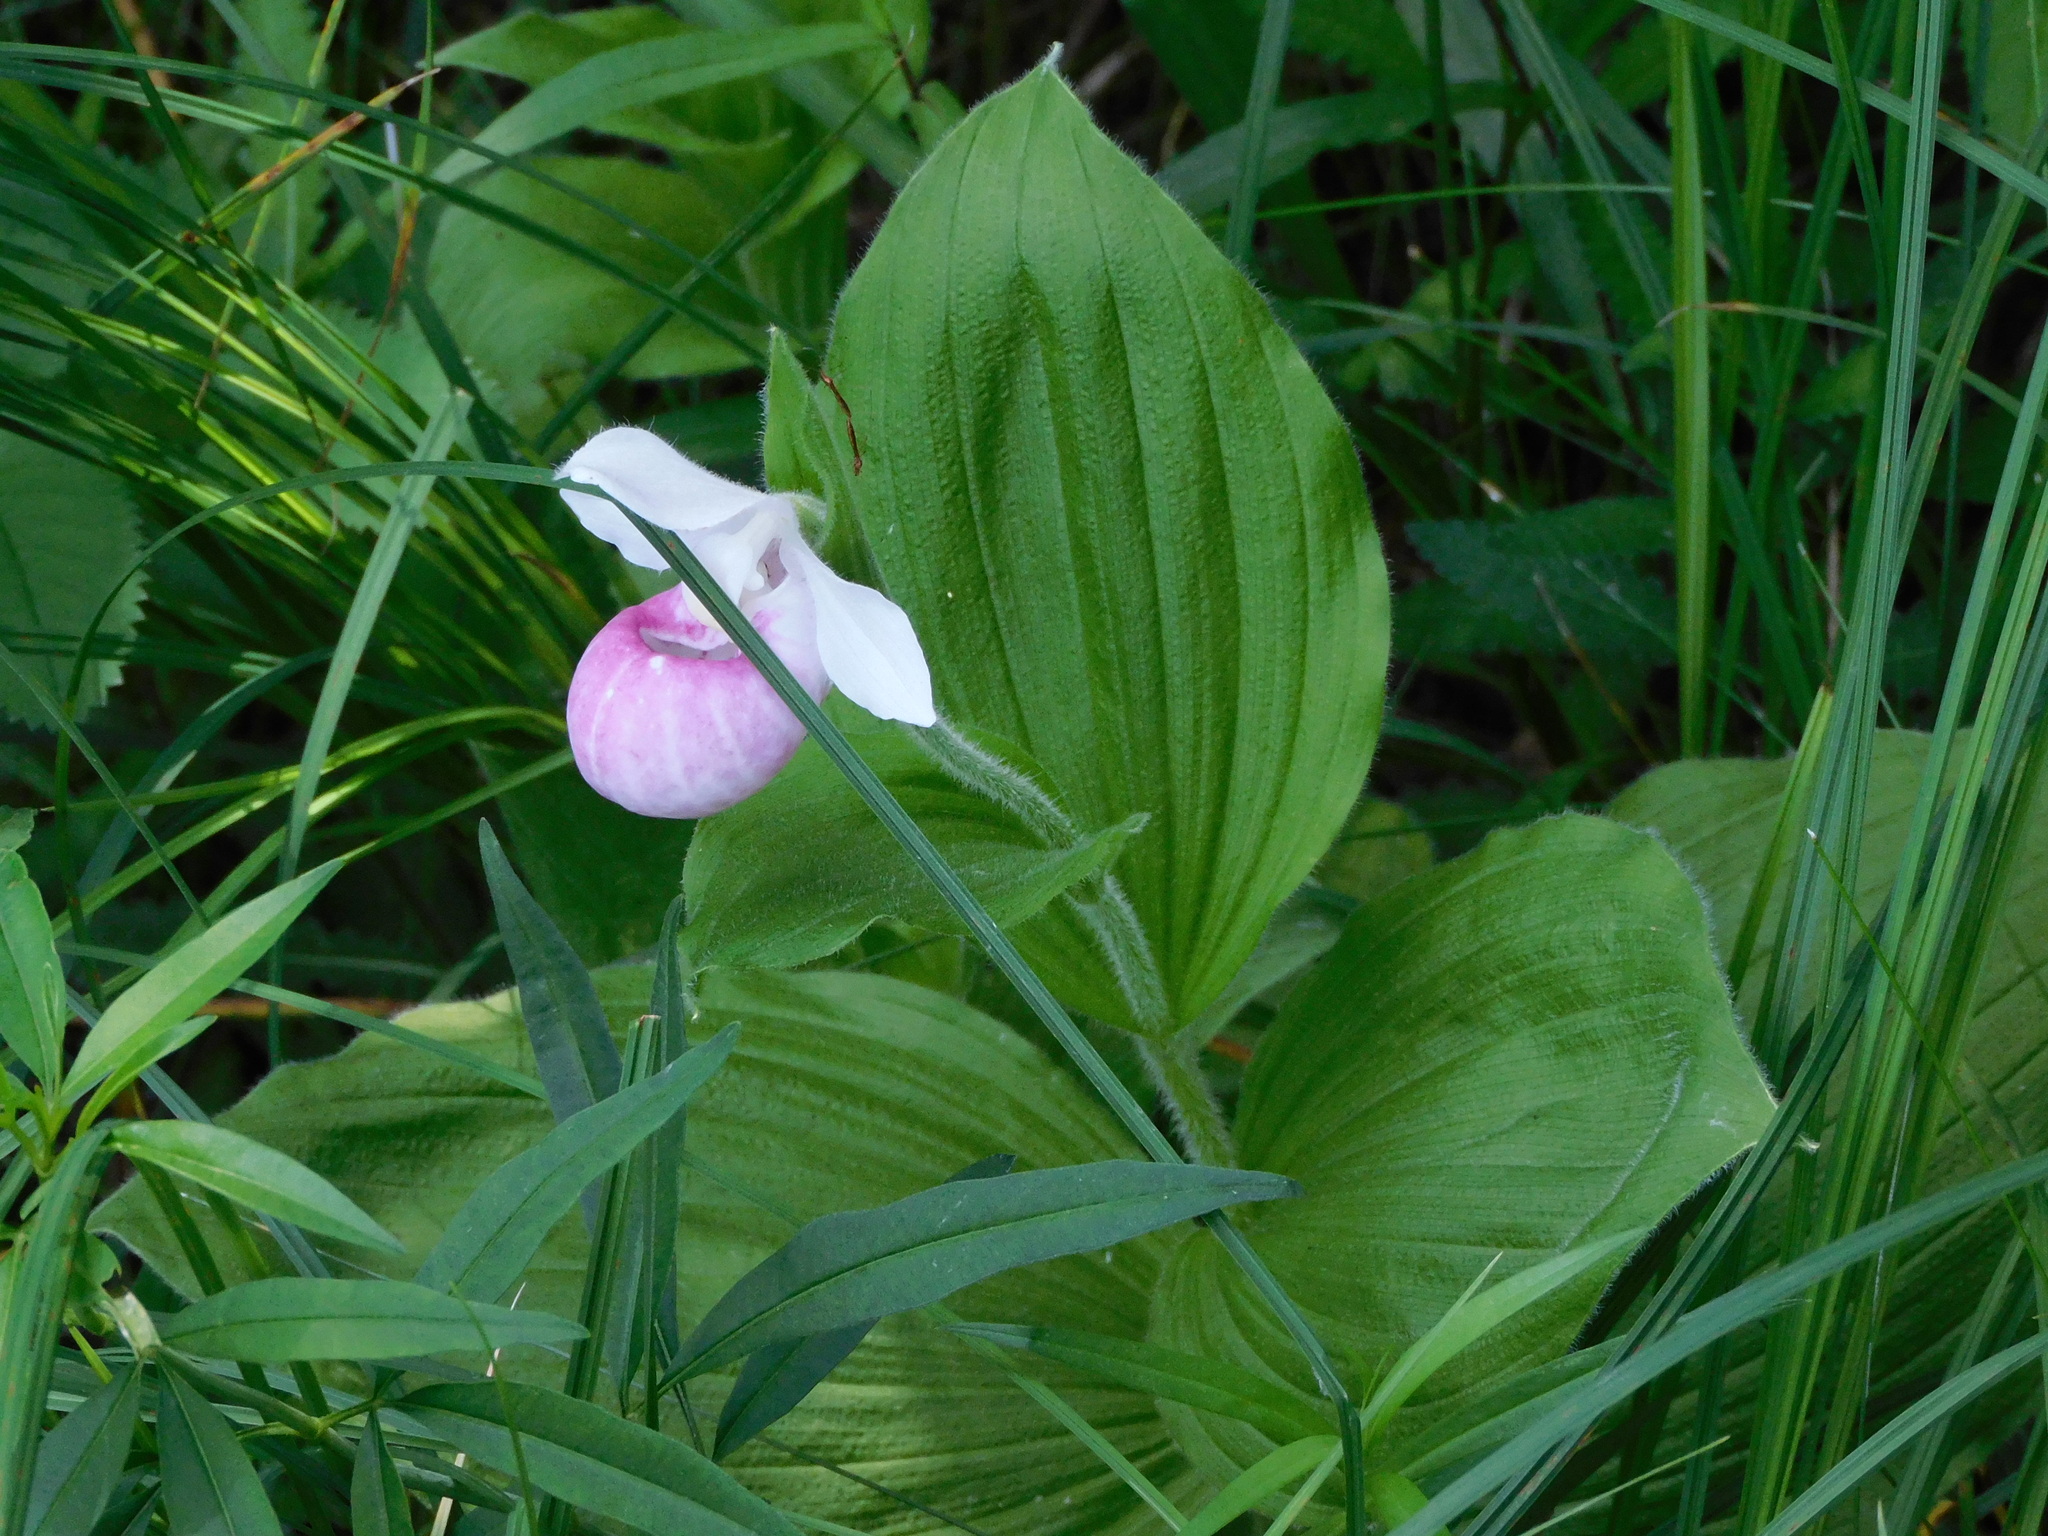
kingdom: Plantae
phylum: Tracheophyta
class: Liliopsida
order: Asparagales
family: Orchidaceae
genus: Cypripedium
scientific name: Cypripedium reginae
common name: Queen lady's-slipper
